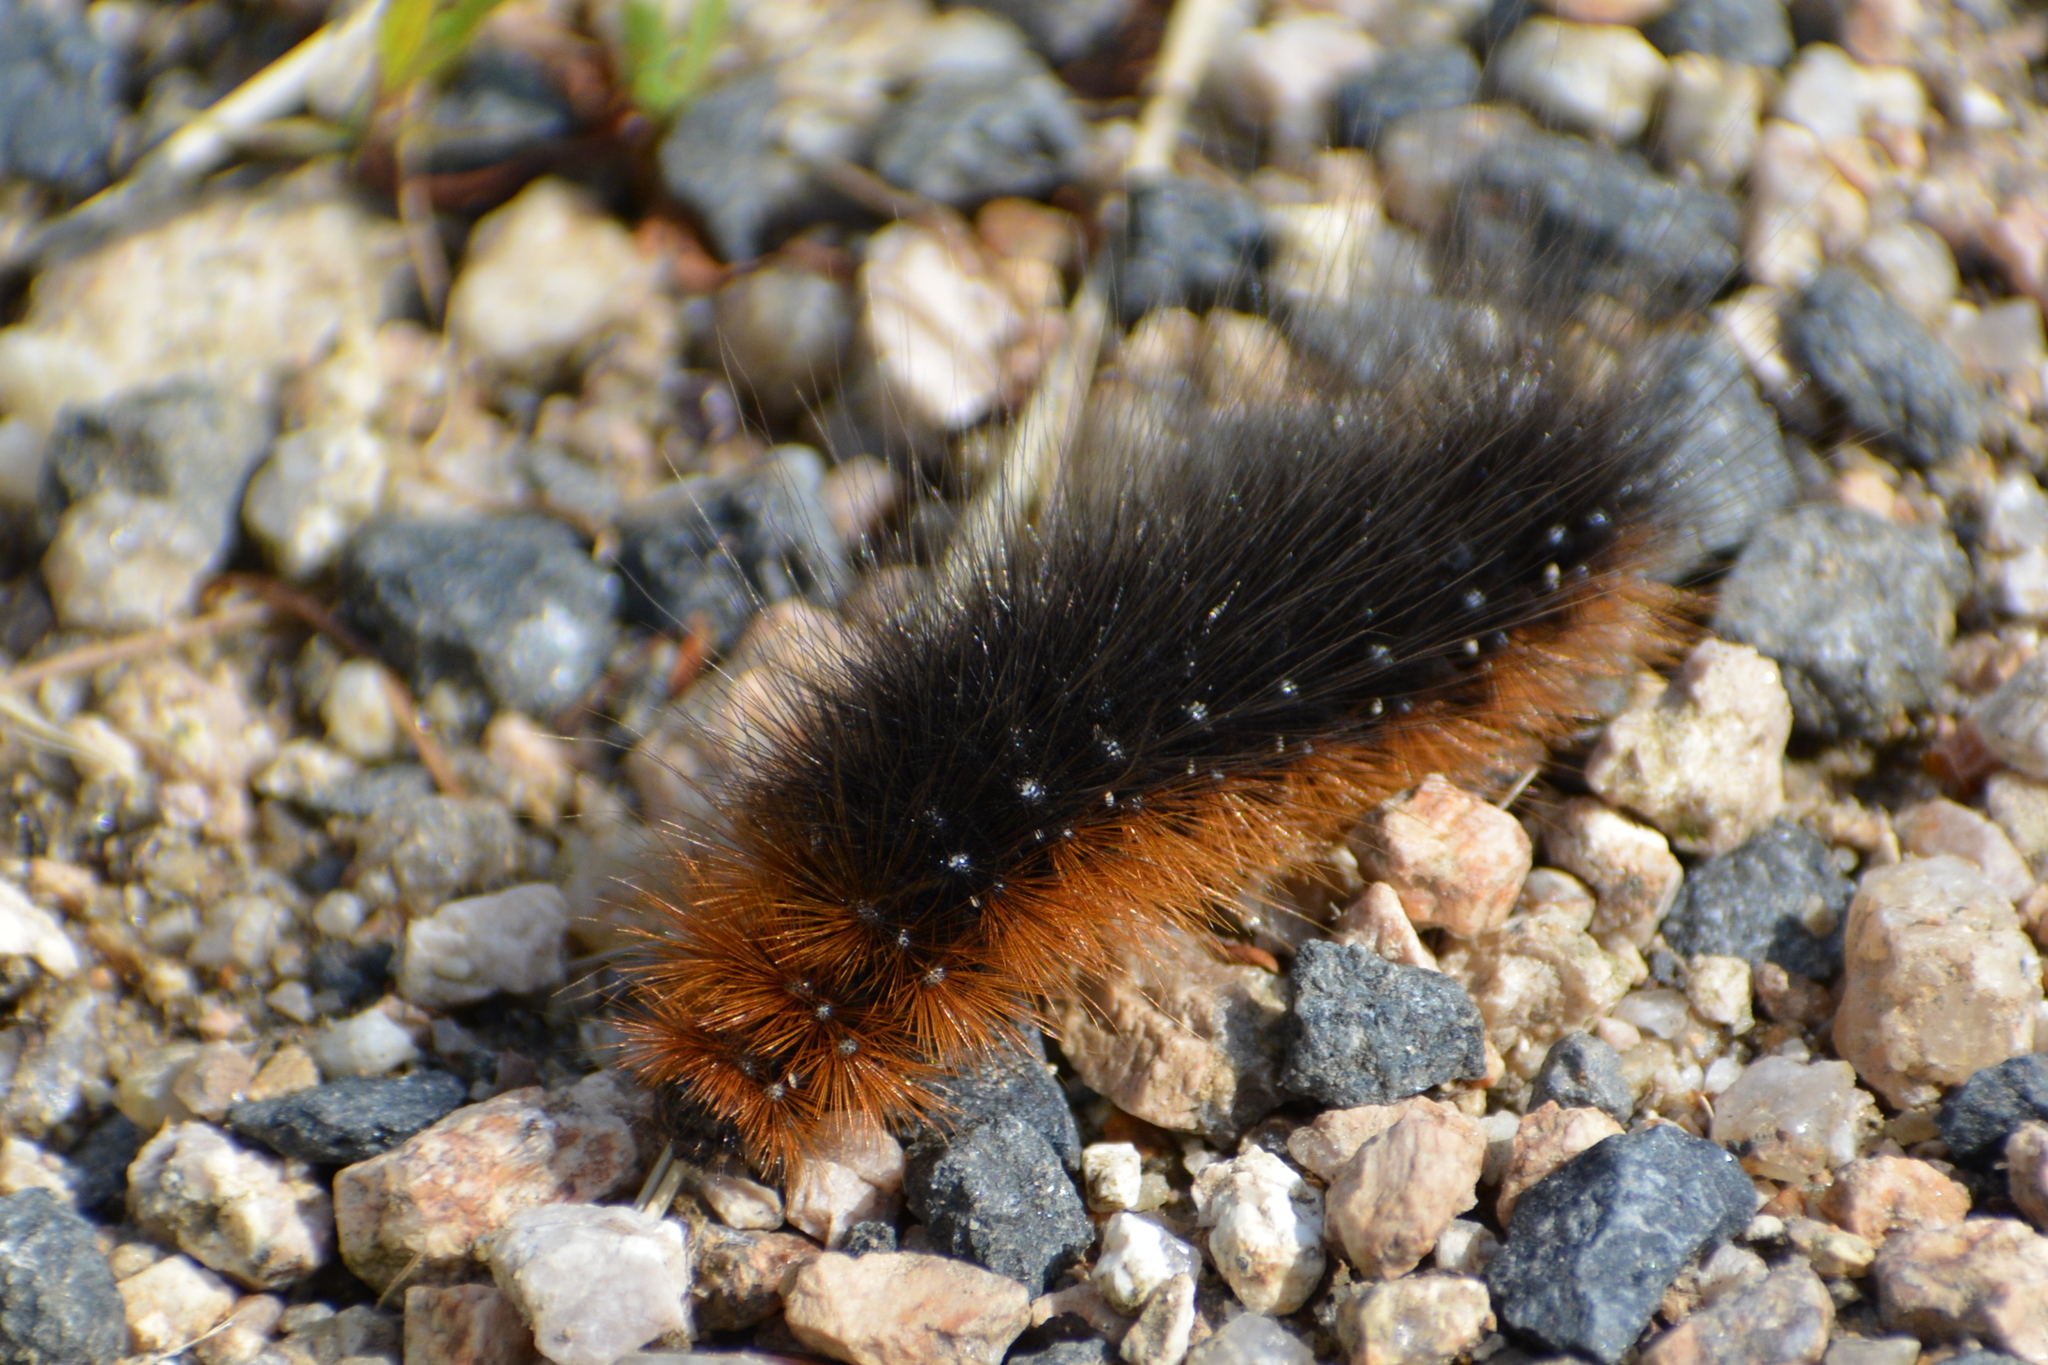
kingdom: Animalia
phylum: Arthropoda
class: Insecta
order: Lepidoptera
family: Erebidae
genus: Arctia
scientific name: Arctia caja
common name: Garden tiger
